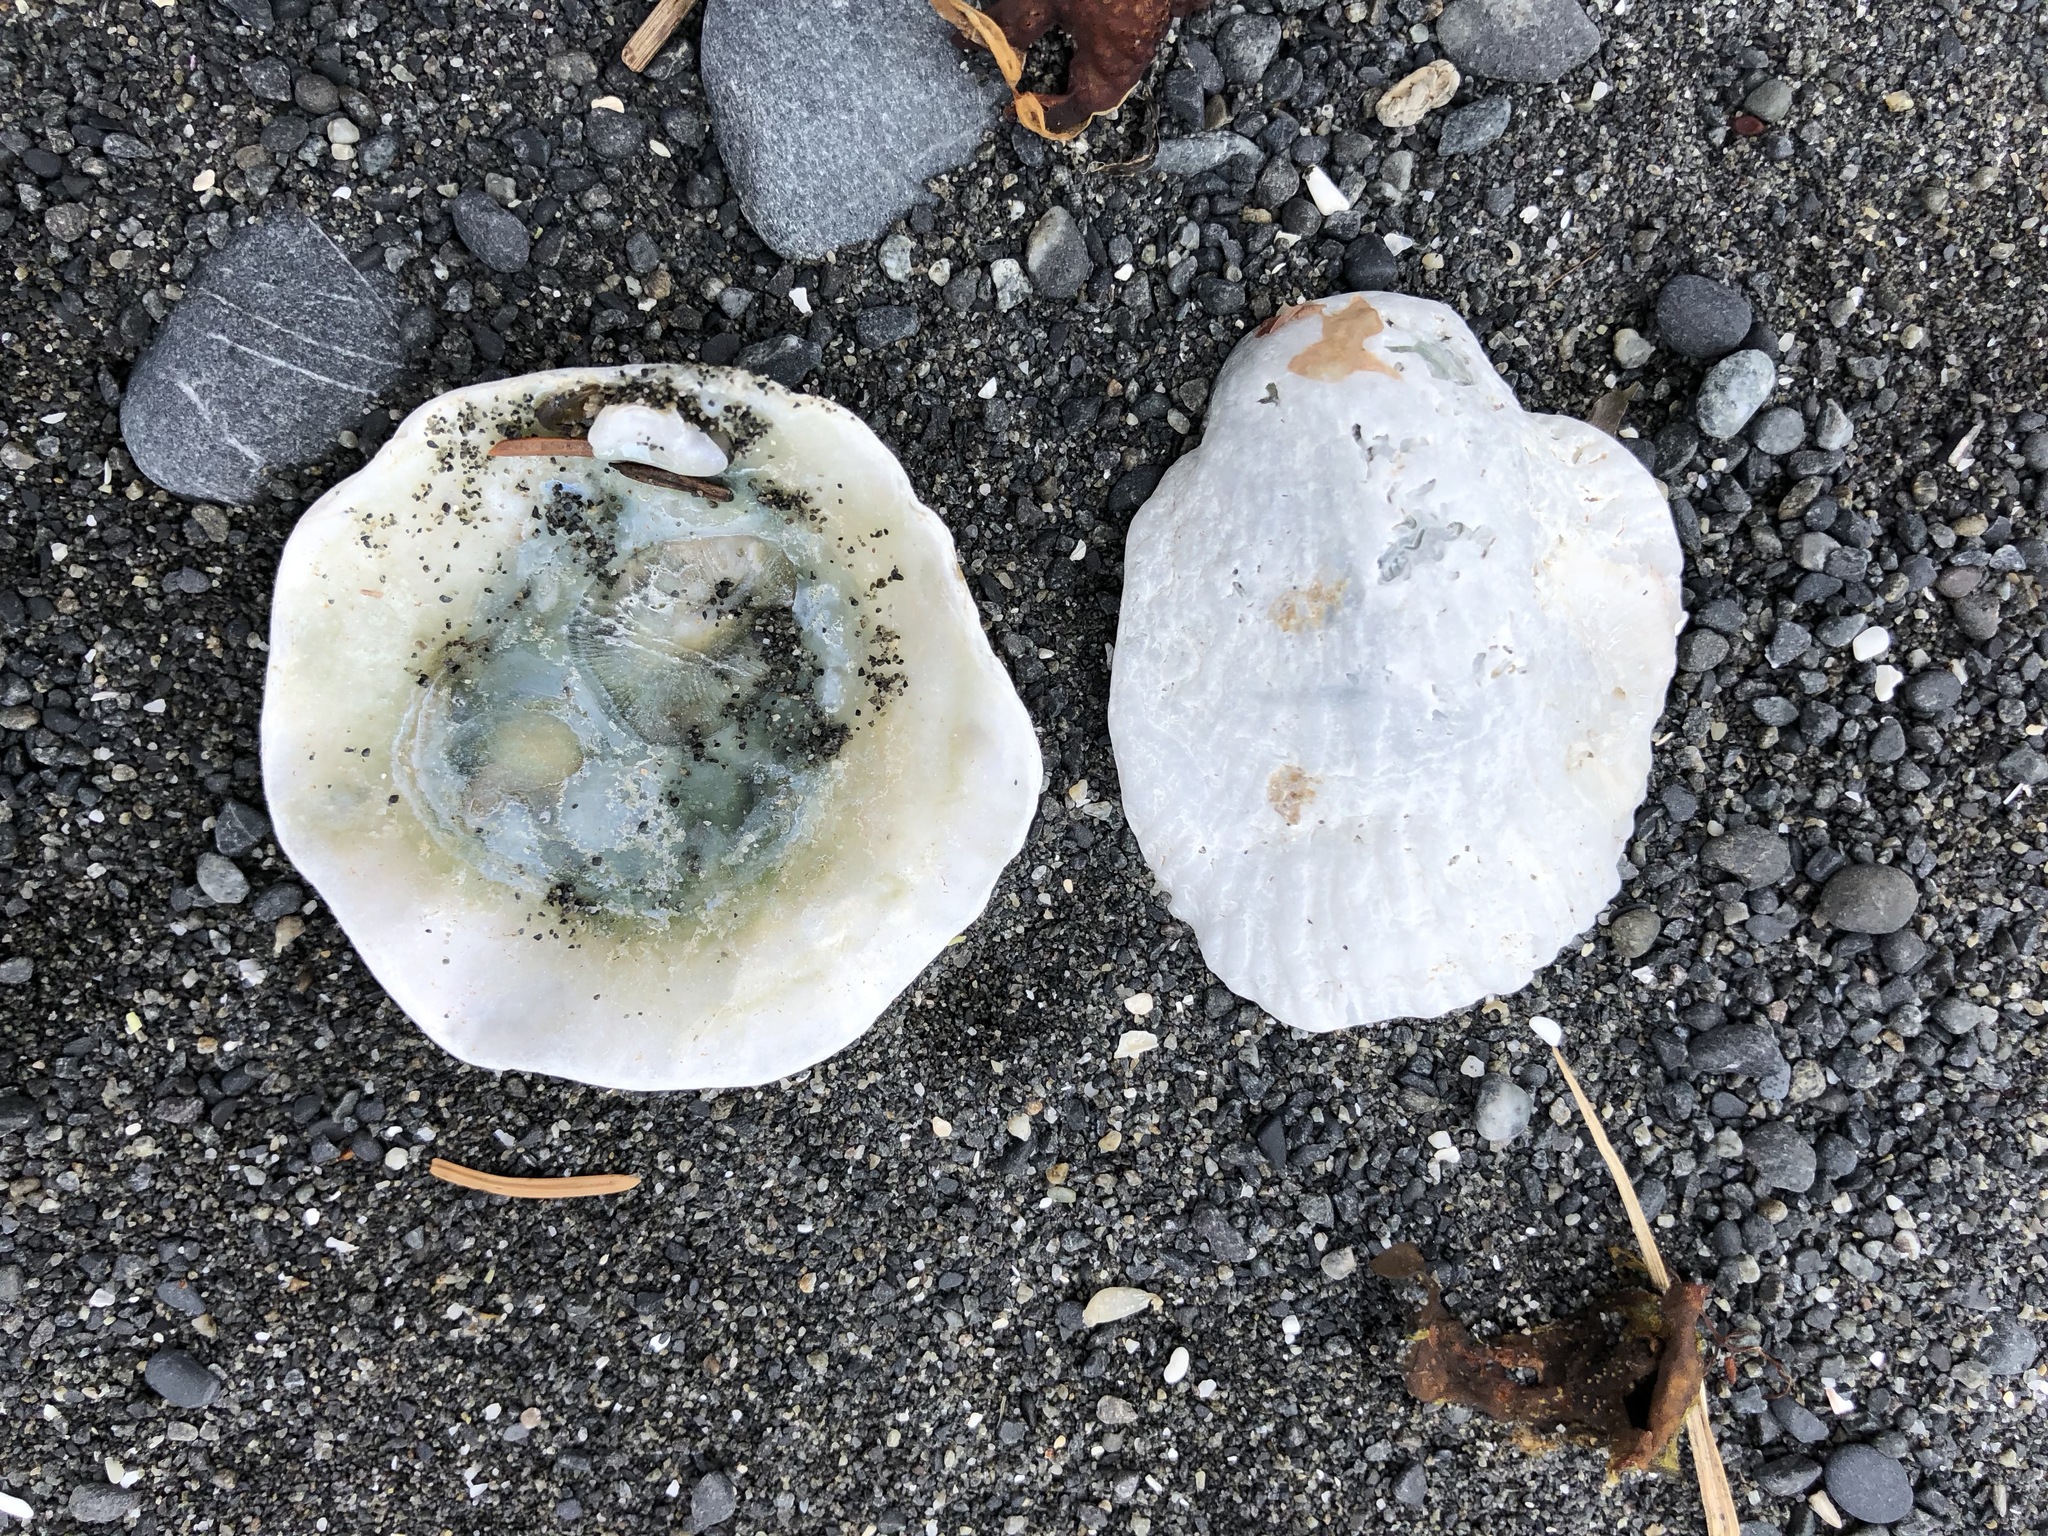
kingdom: Animalia
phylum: Mollusca
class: Bivalvia
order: Pectinida
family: Anomiidae
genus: Pododesmus
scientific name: Pododesmus macrochisma
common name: Alaska jingle
